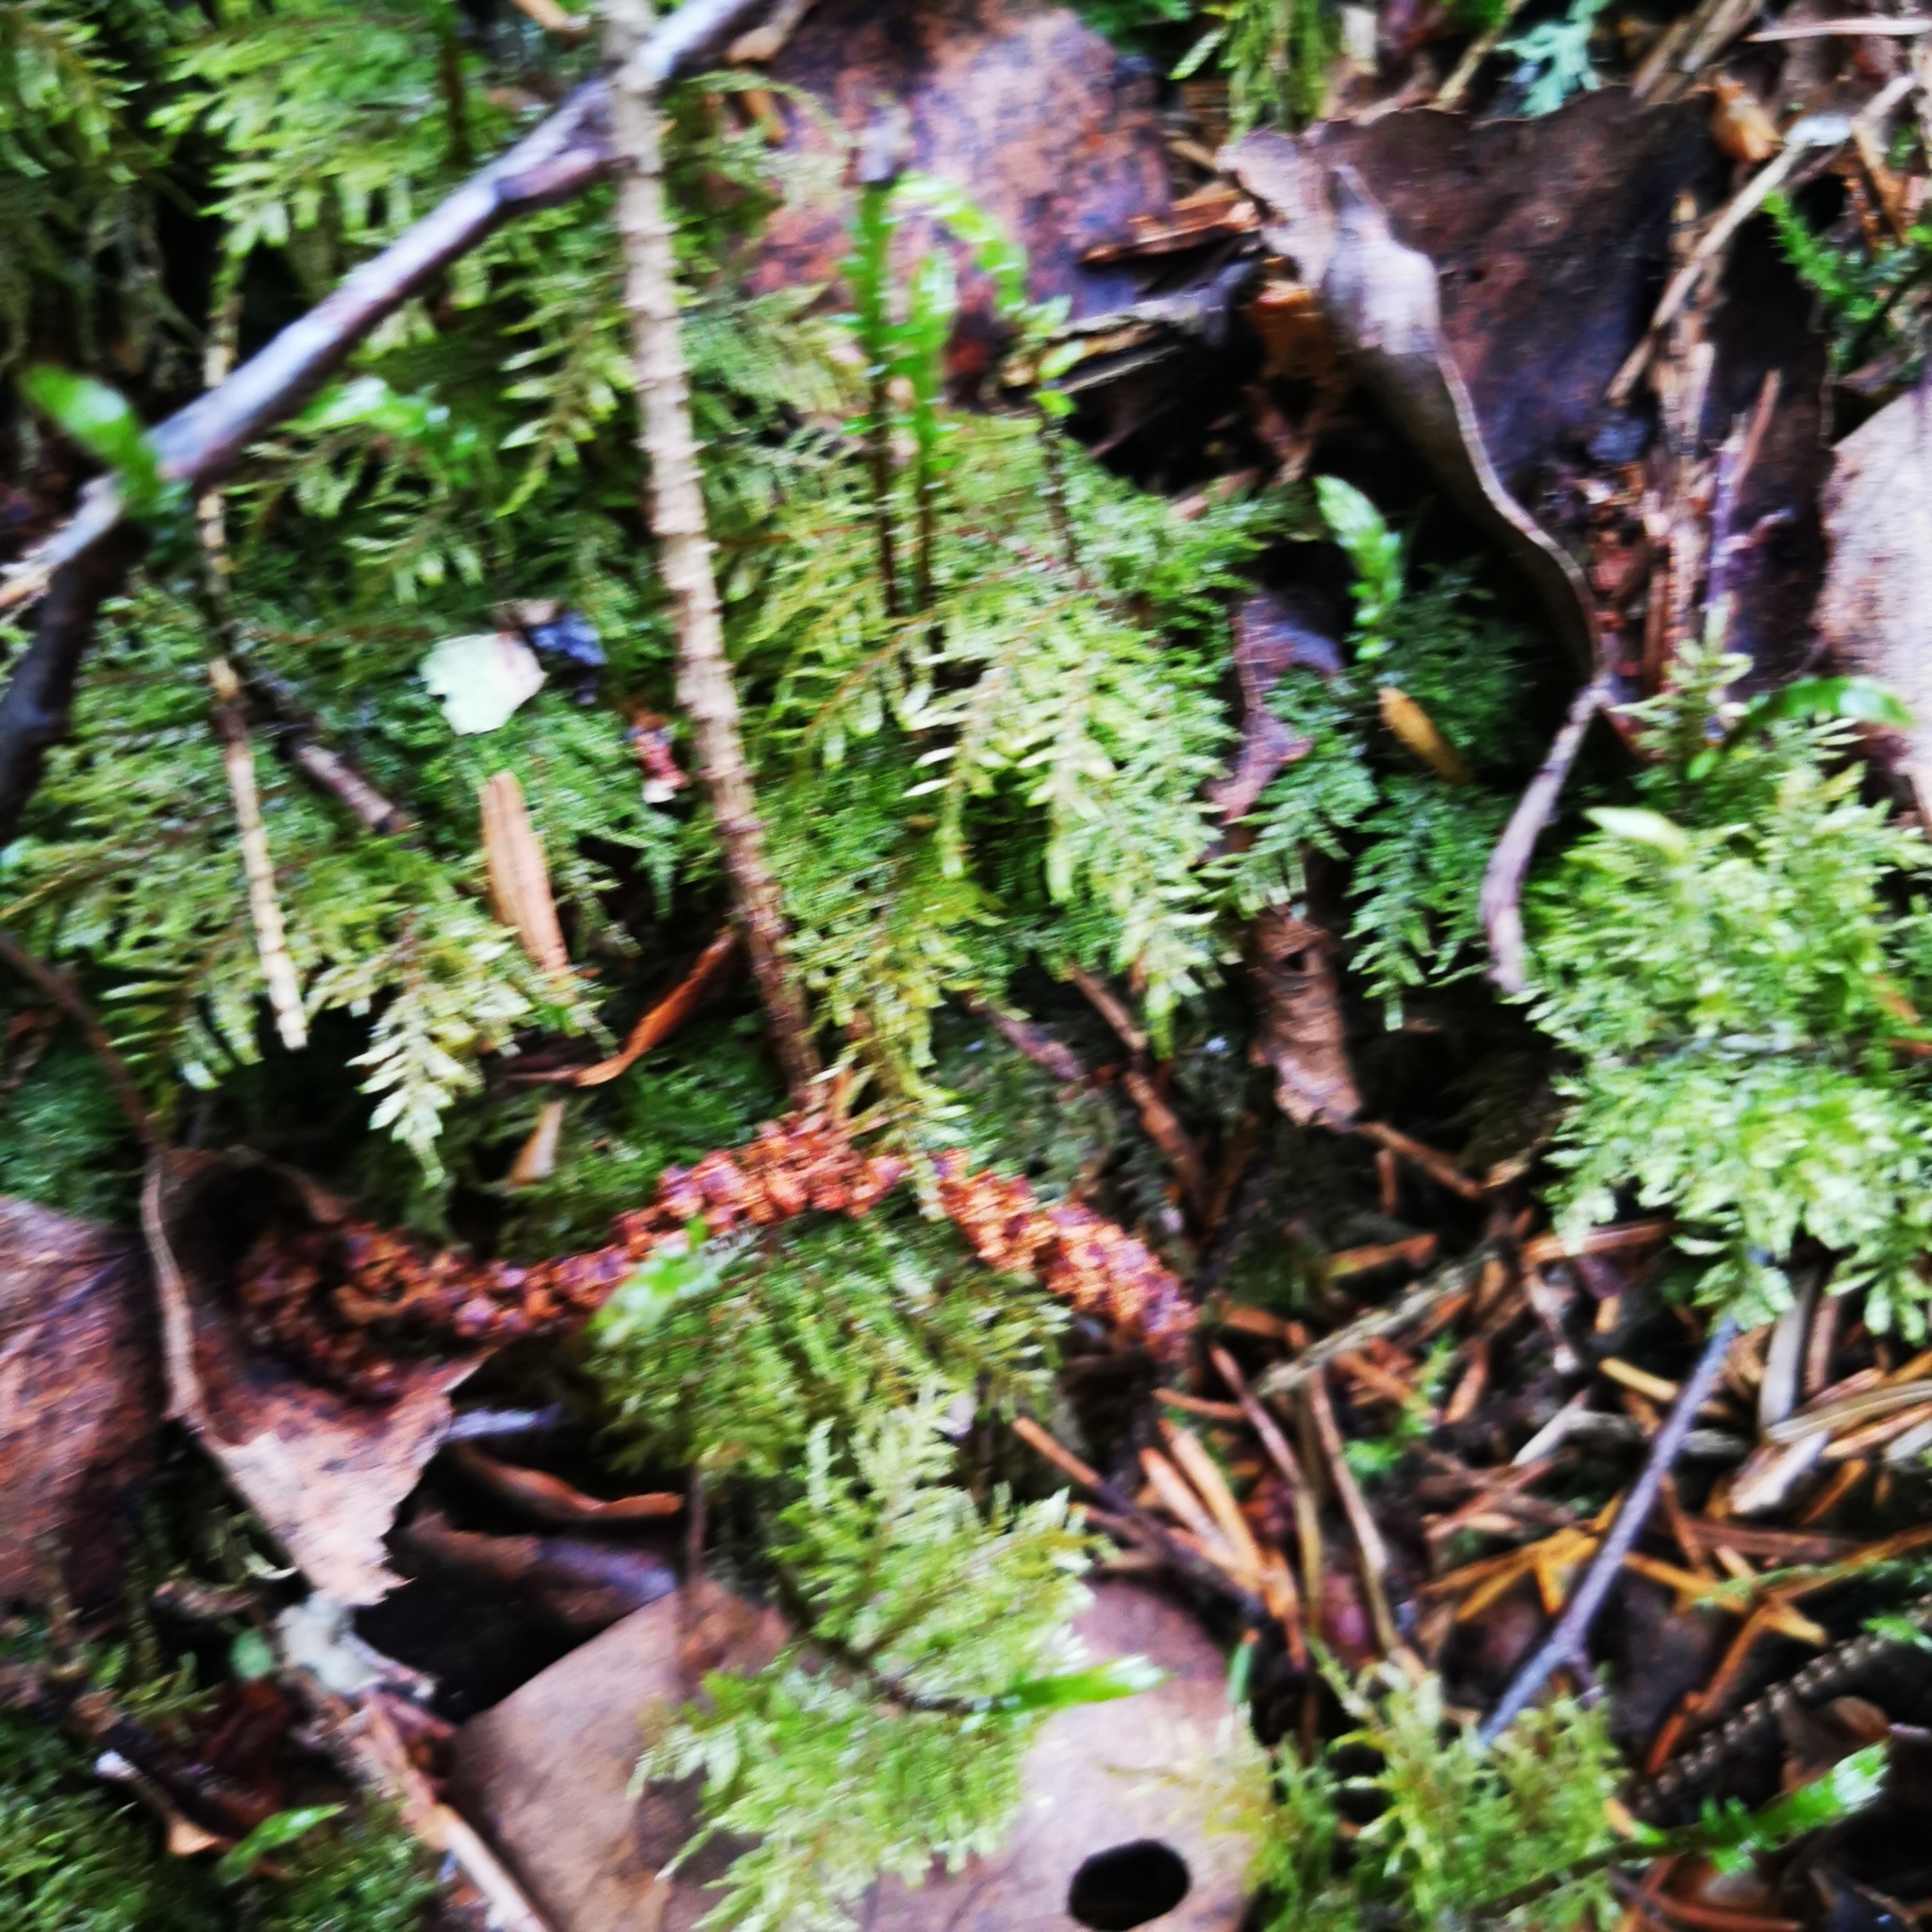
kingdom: Plantae
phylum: Bryophyta
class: Bryopsida
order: Hypnales
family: Hylocomiaceae
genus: Hylocomium
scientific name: Hylocomium splendens
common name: Stairstep moss
